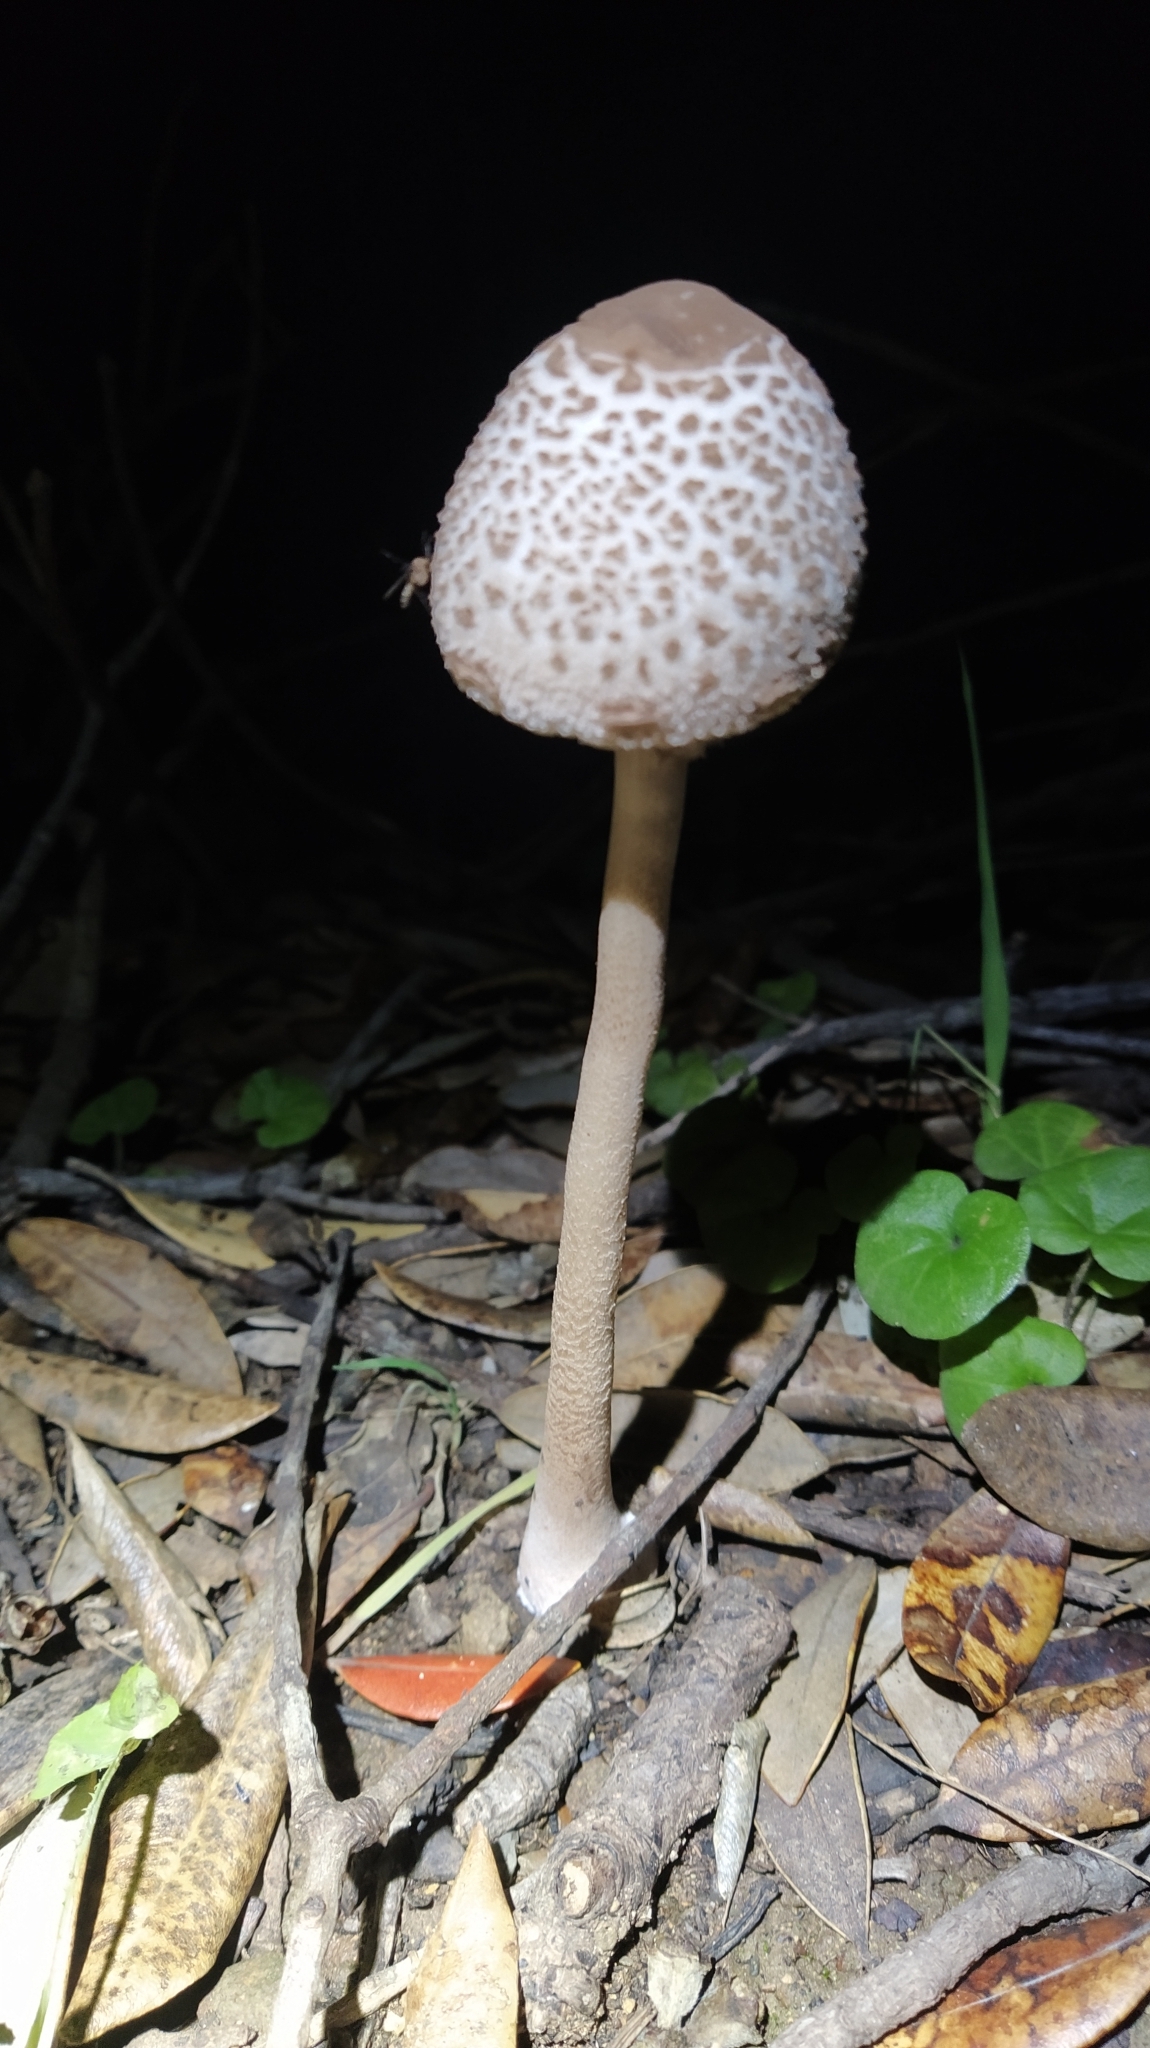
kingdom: Fungi
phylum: Basidiomycota
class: Agaricomycetes
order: Agaricales
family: Agaricaceae
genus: Macrolepiota
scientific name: Macrolepiota clelandii
